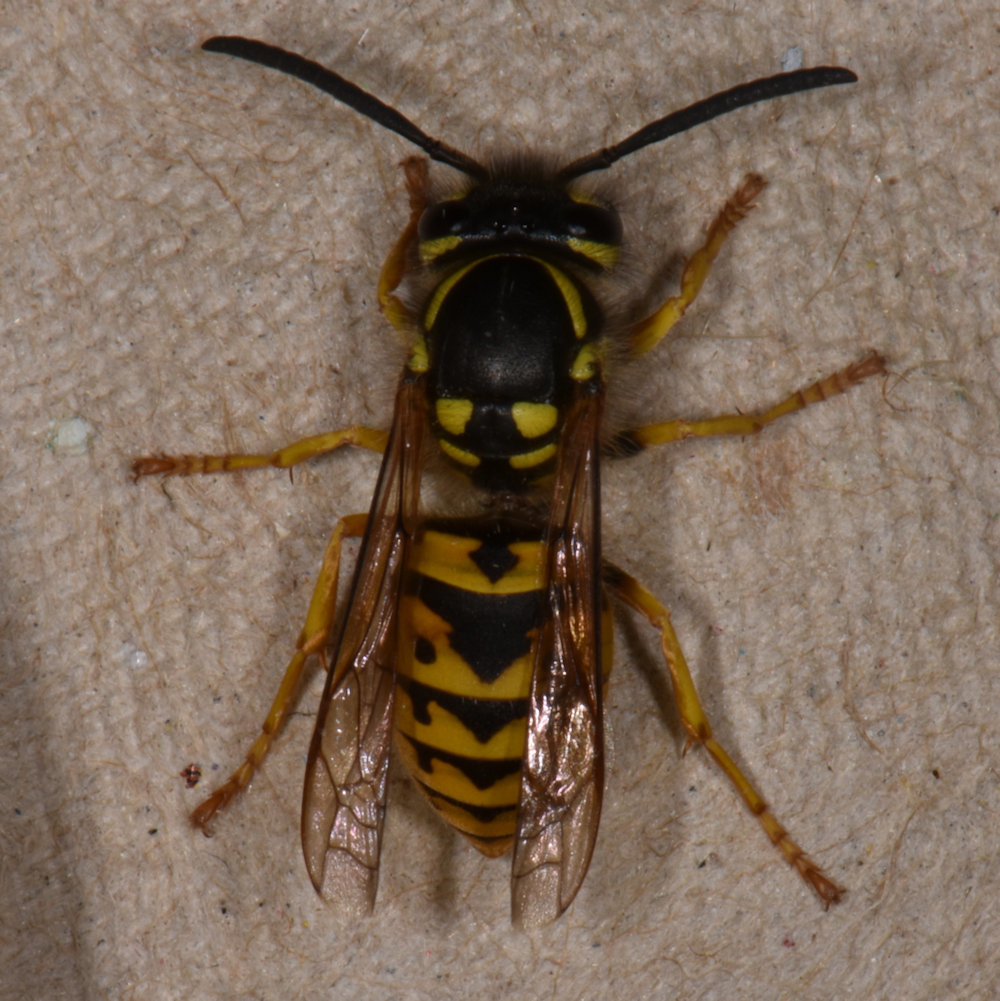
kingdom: Animalia
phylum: Arthropoda
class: Insecta
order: Hymenoptera
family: Vespidae
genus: Vespula
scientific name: Vespula germanica
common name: German wasp
